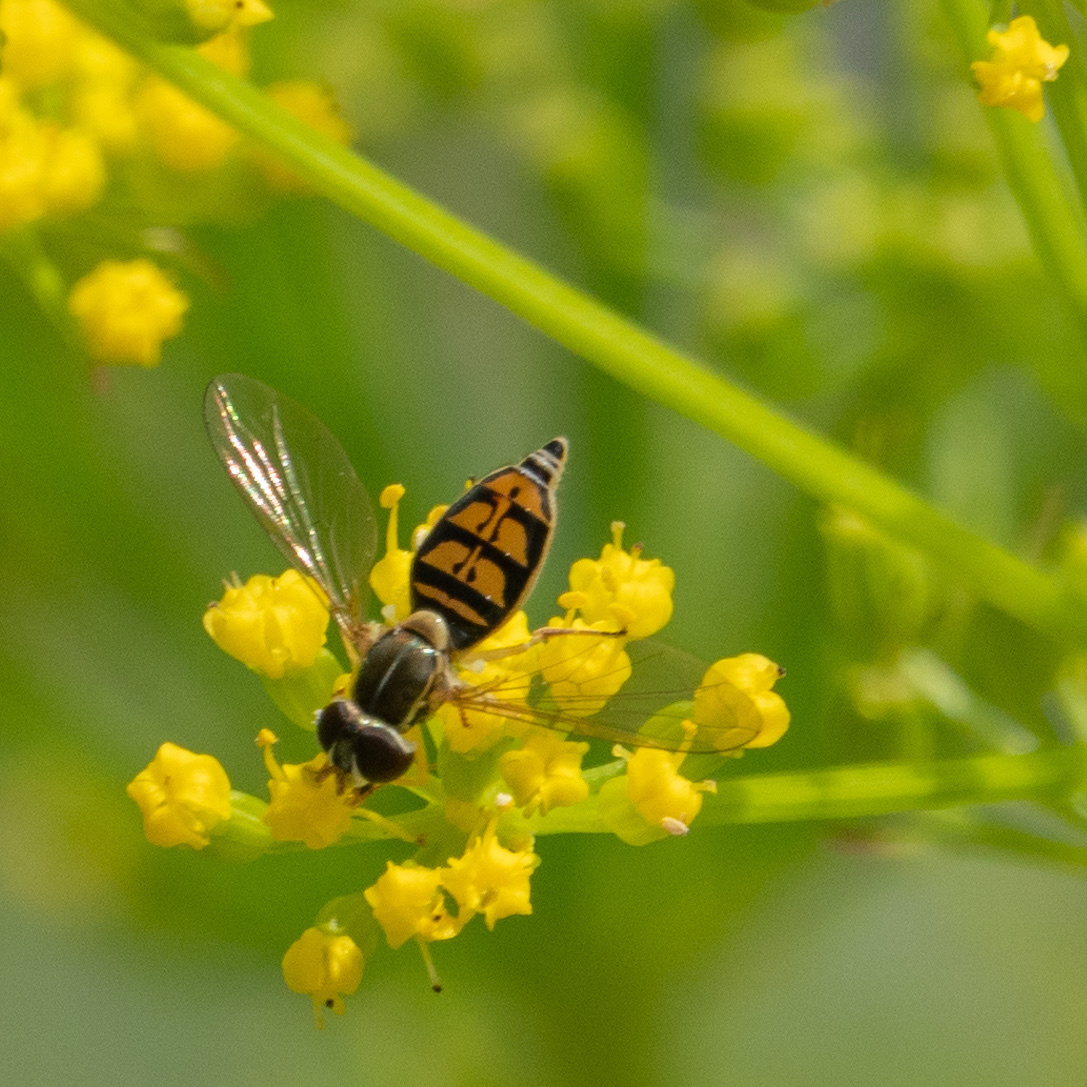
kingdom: Animalia
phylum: Arthropoda
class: Insecta
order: Diptera
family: Syrphidae
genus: Toxomerus
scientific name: Toxomerus marginatus
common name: Syrphid fly
